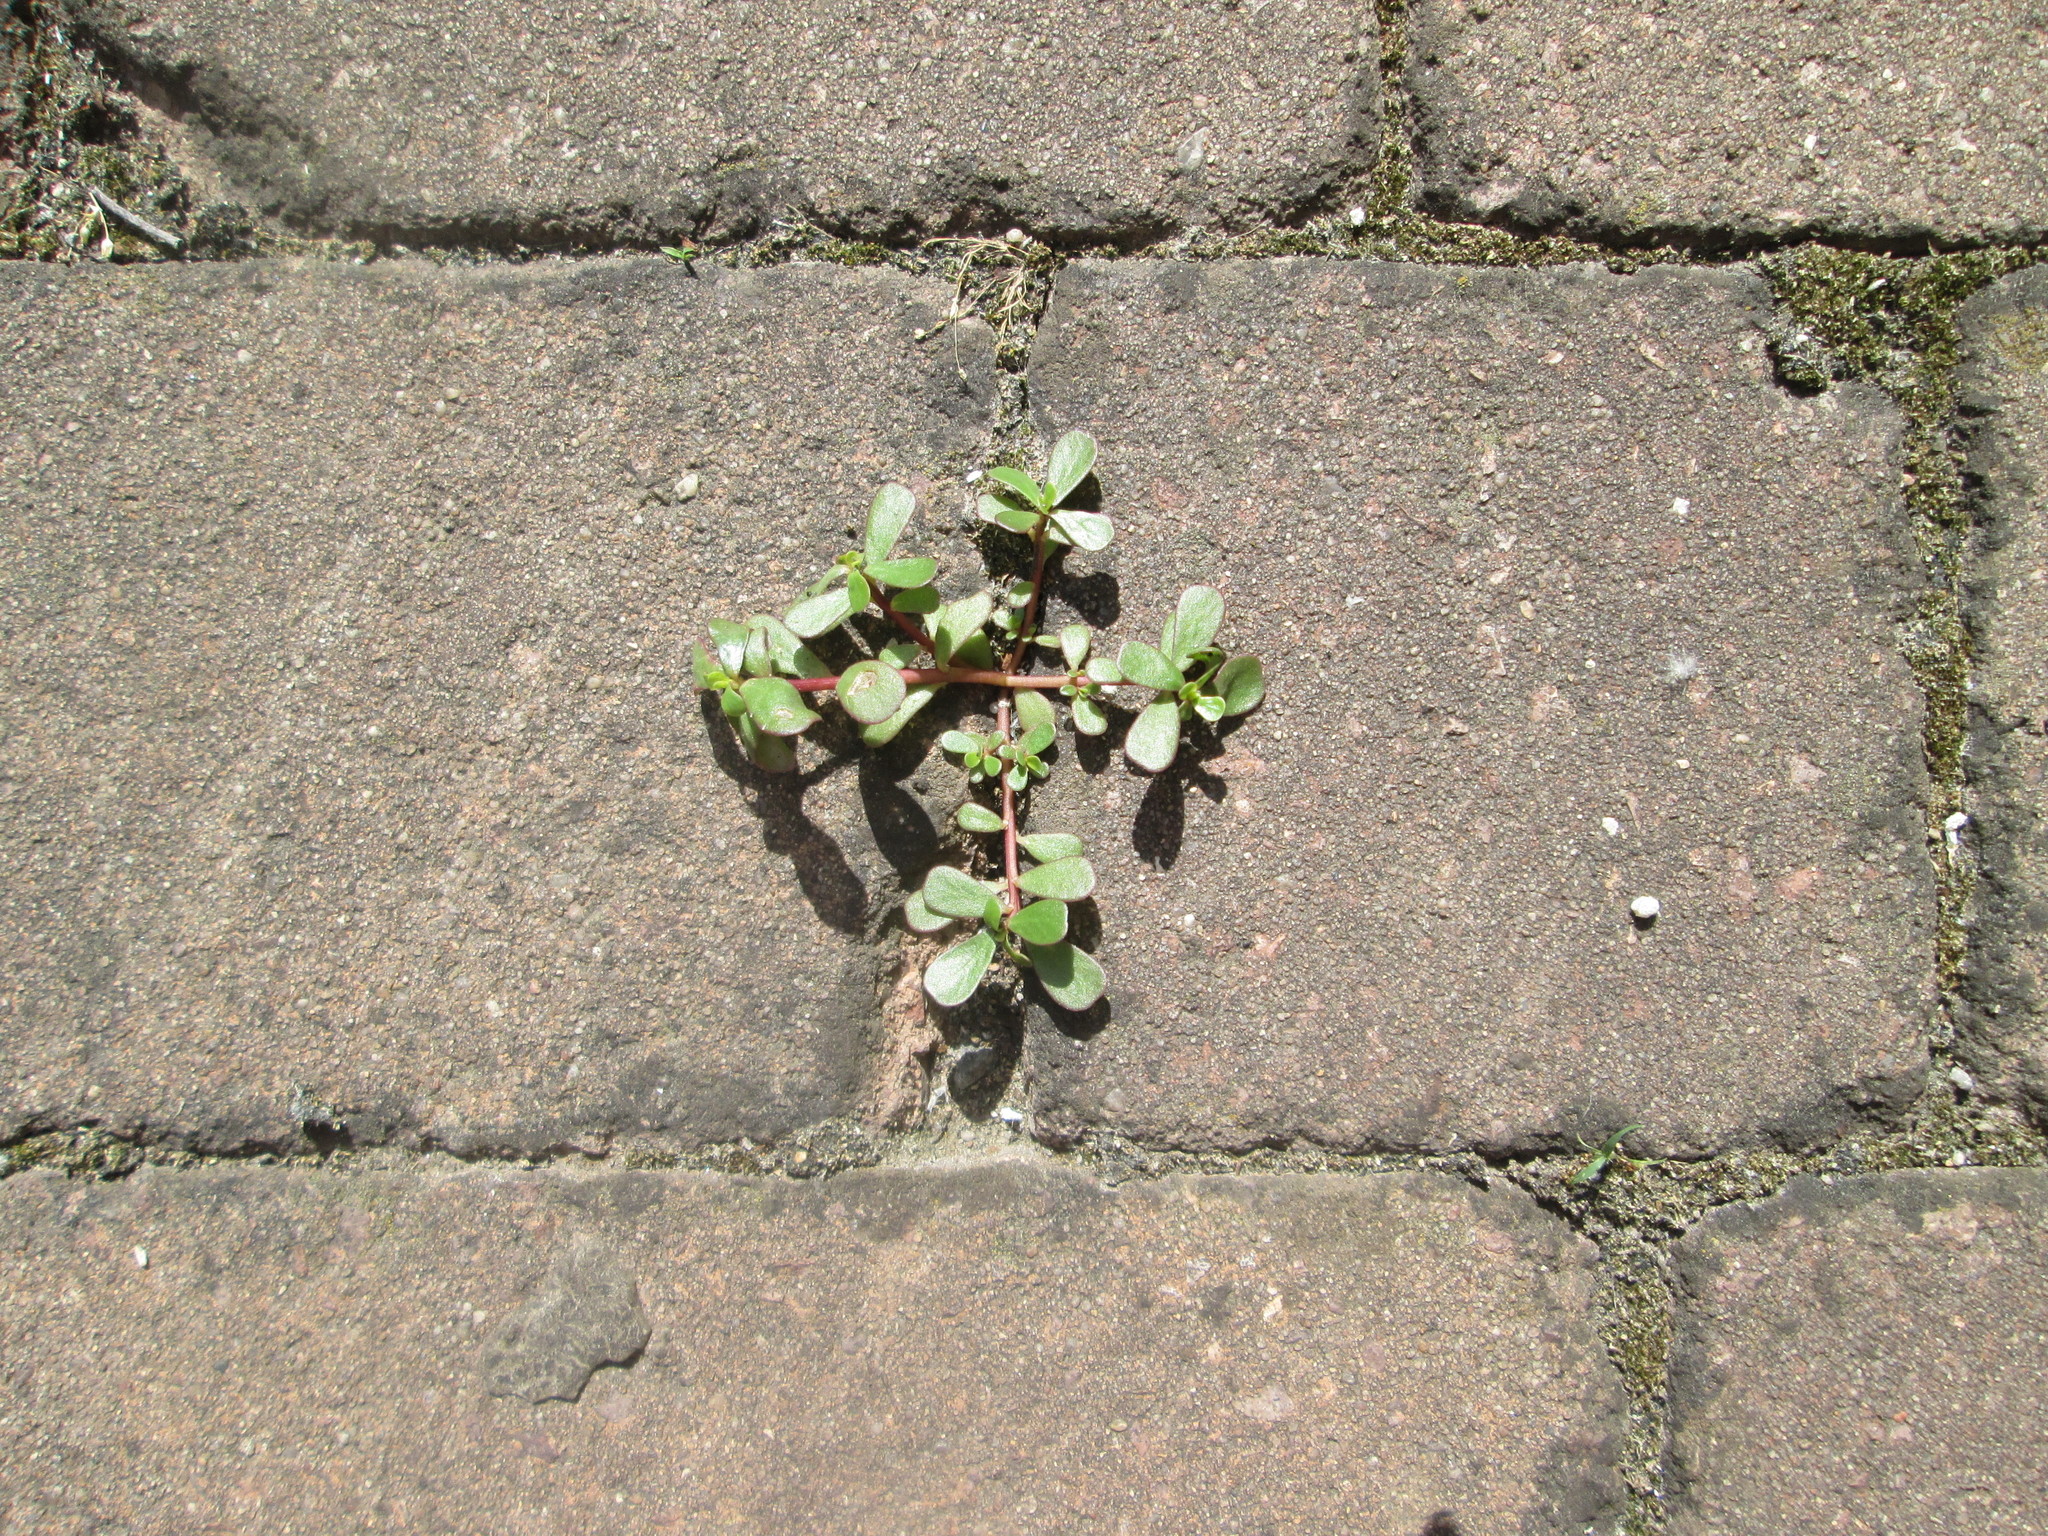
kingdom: Plantae
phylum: Tracheophyta
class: Magnoliopsida
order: Caryophyllales
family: Portulacaceae
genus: Portulaca
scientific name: Portulaca oleracea
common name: Common purslane
